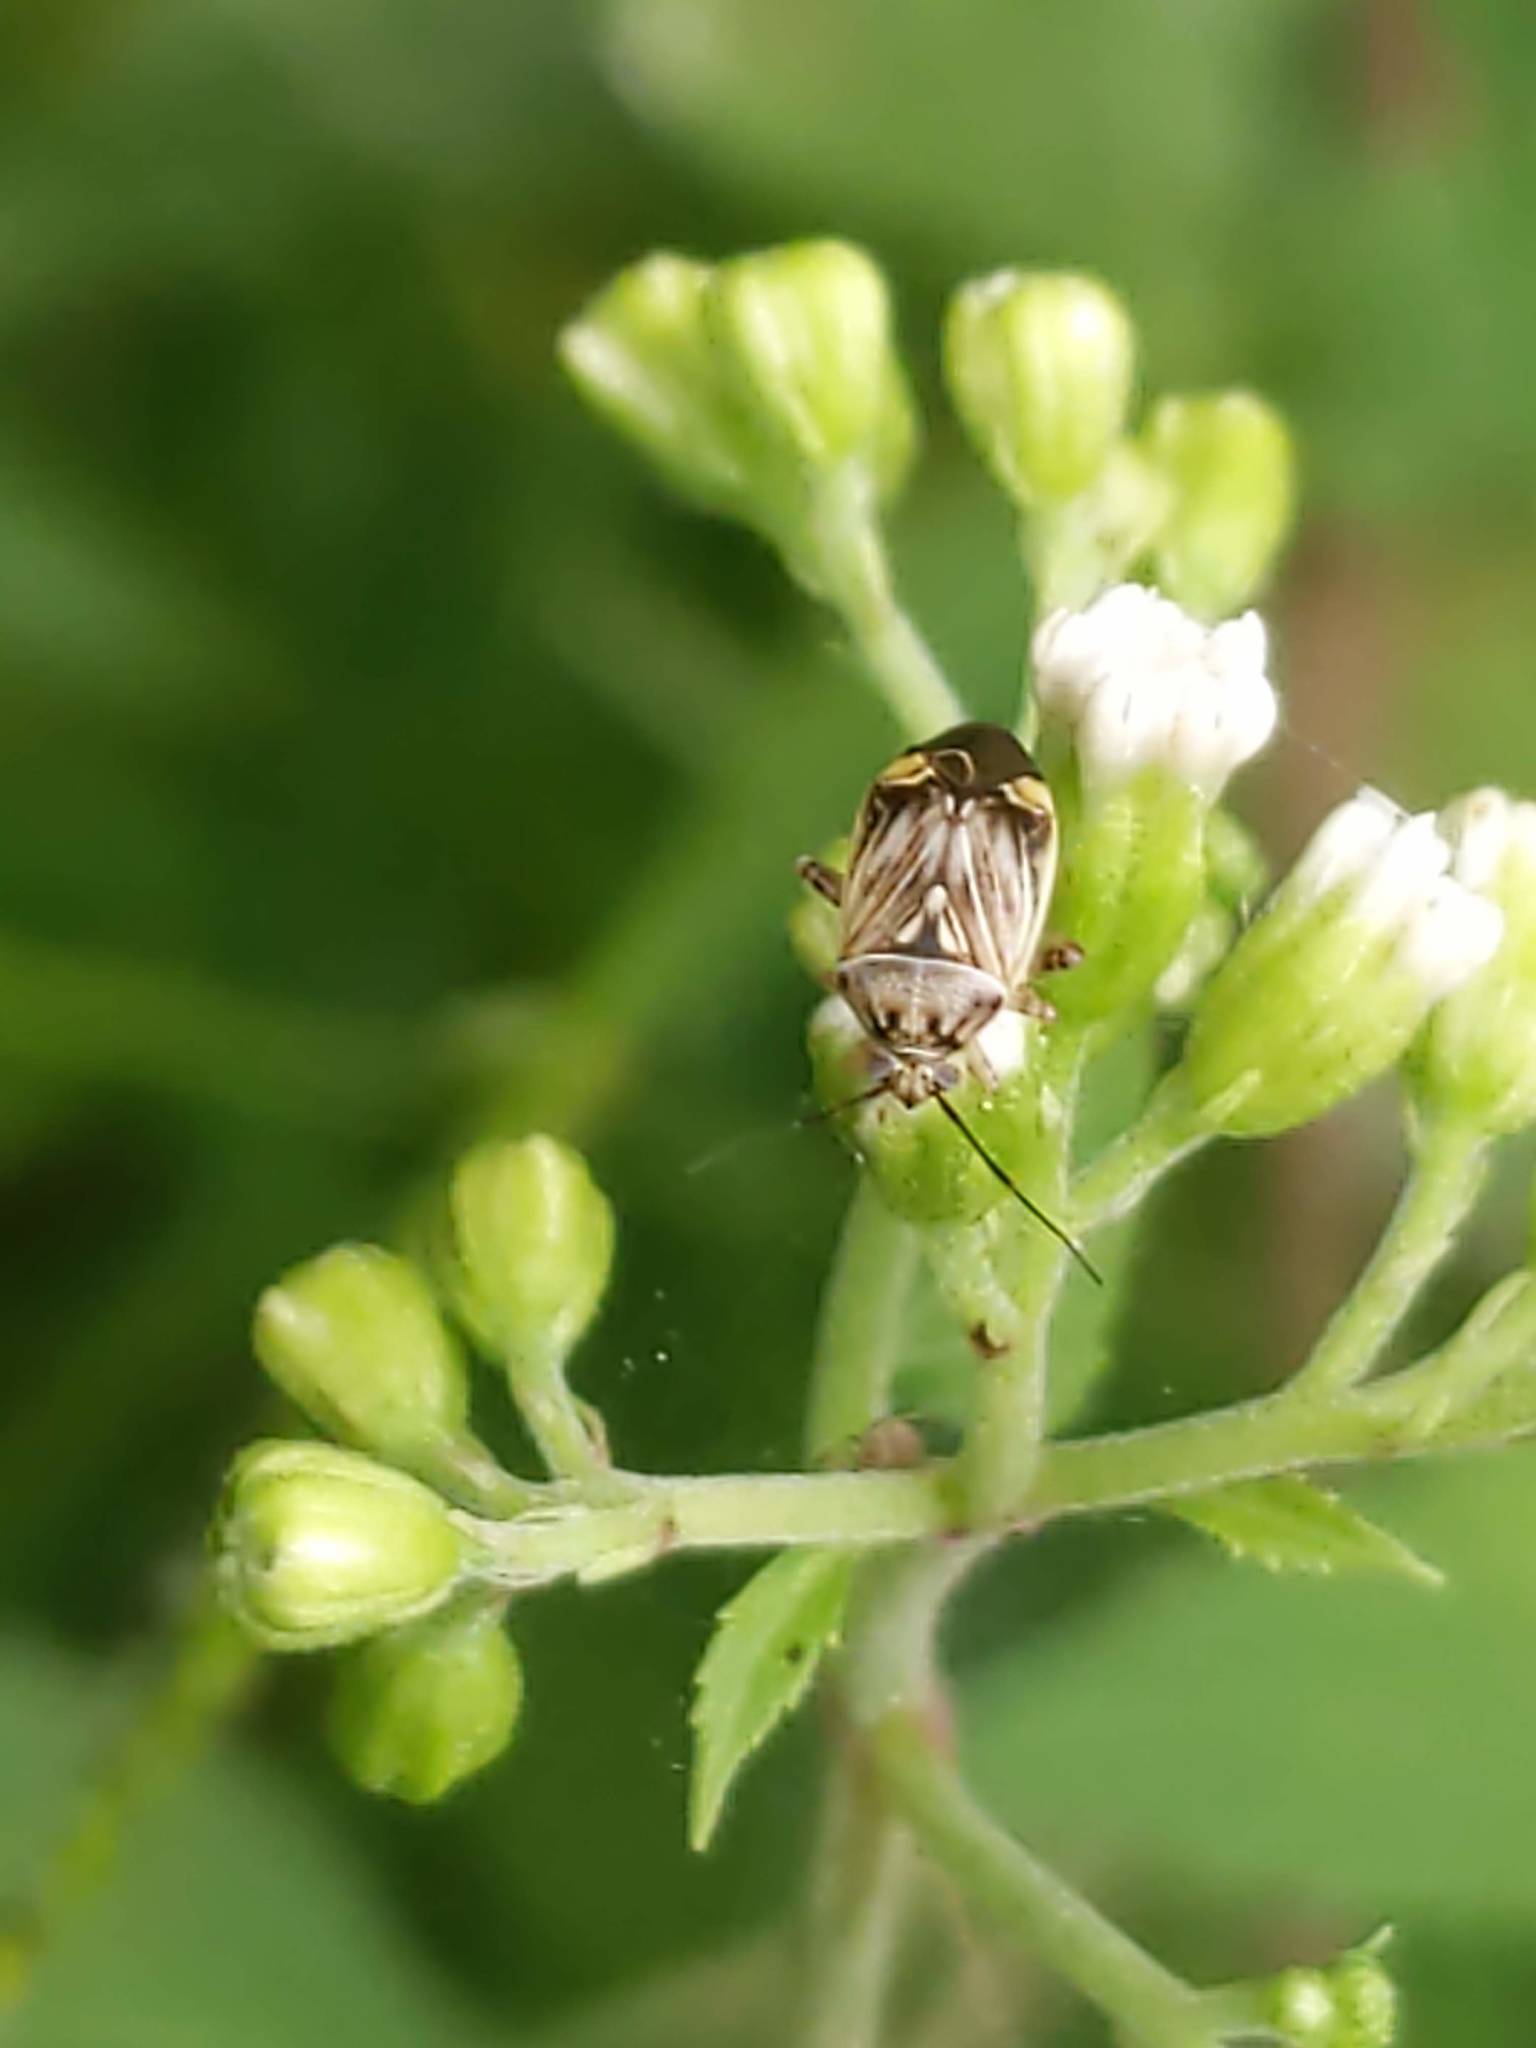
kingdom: Animalia
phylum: Arthropoda
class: Insecta
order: Hemiptera
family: Miridae
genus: Lygus
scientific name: Lygus
